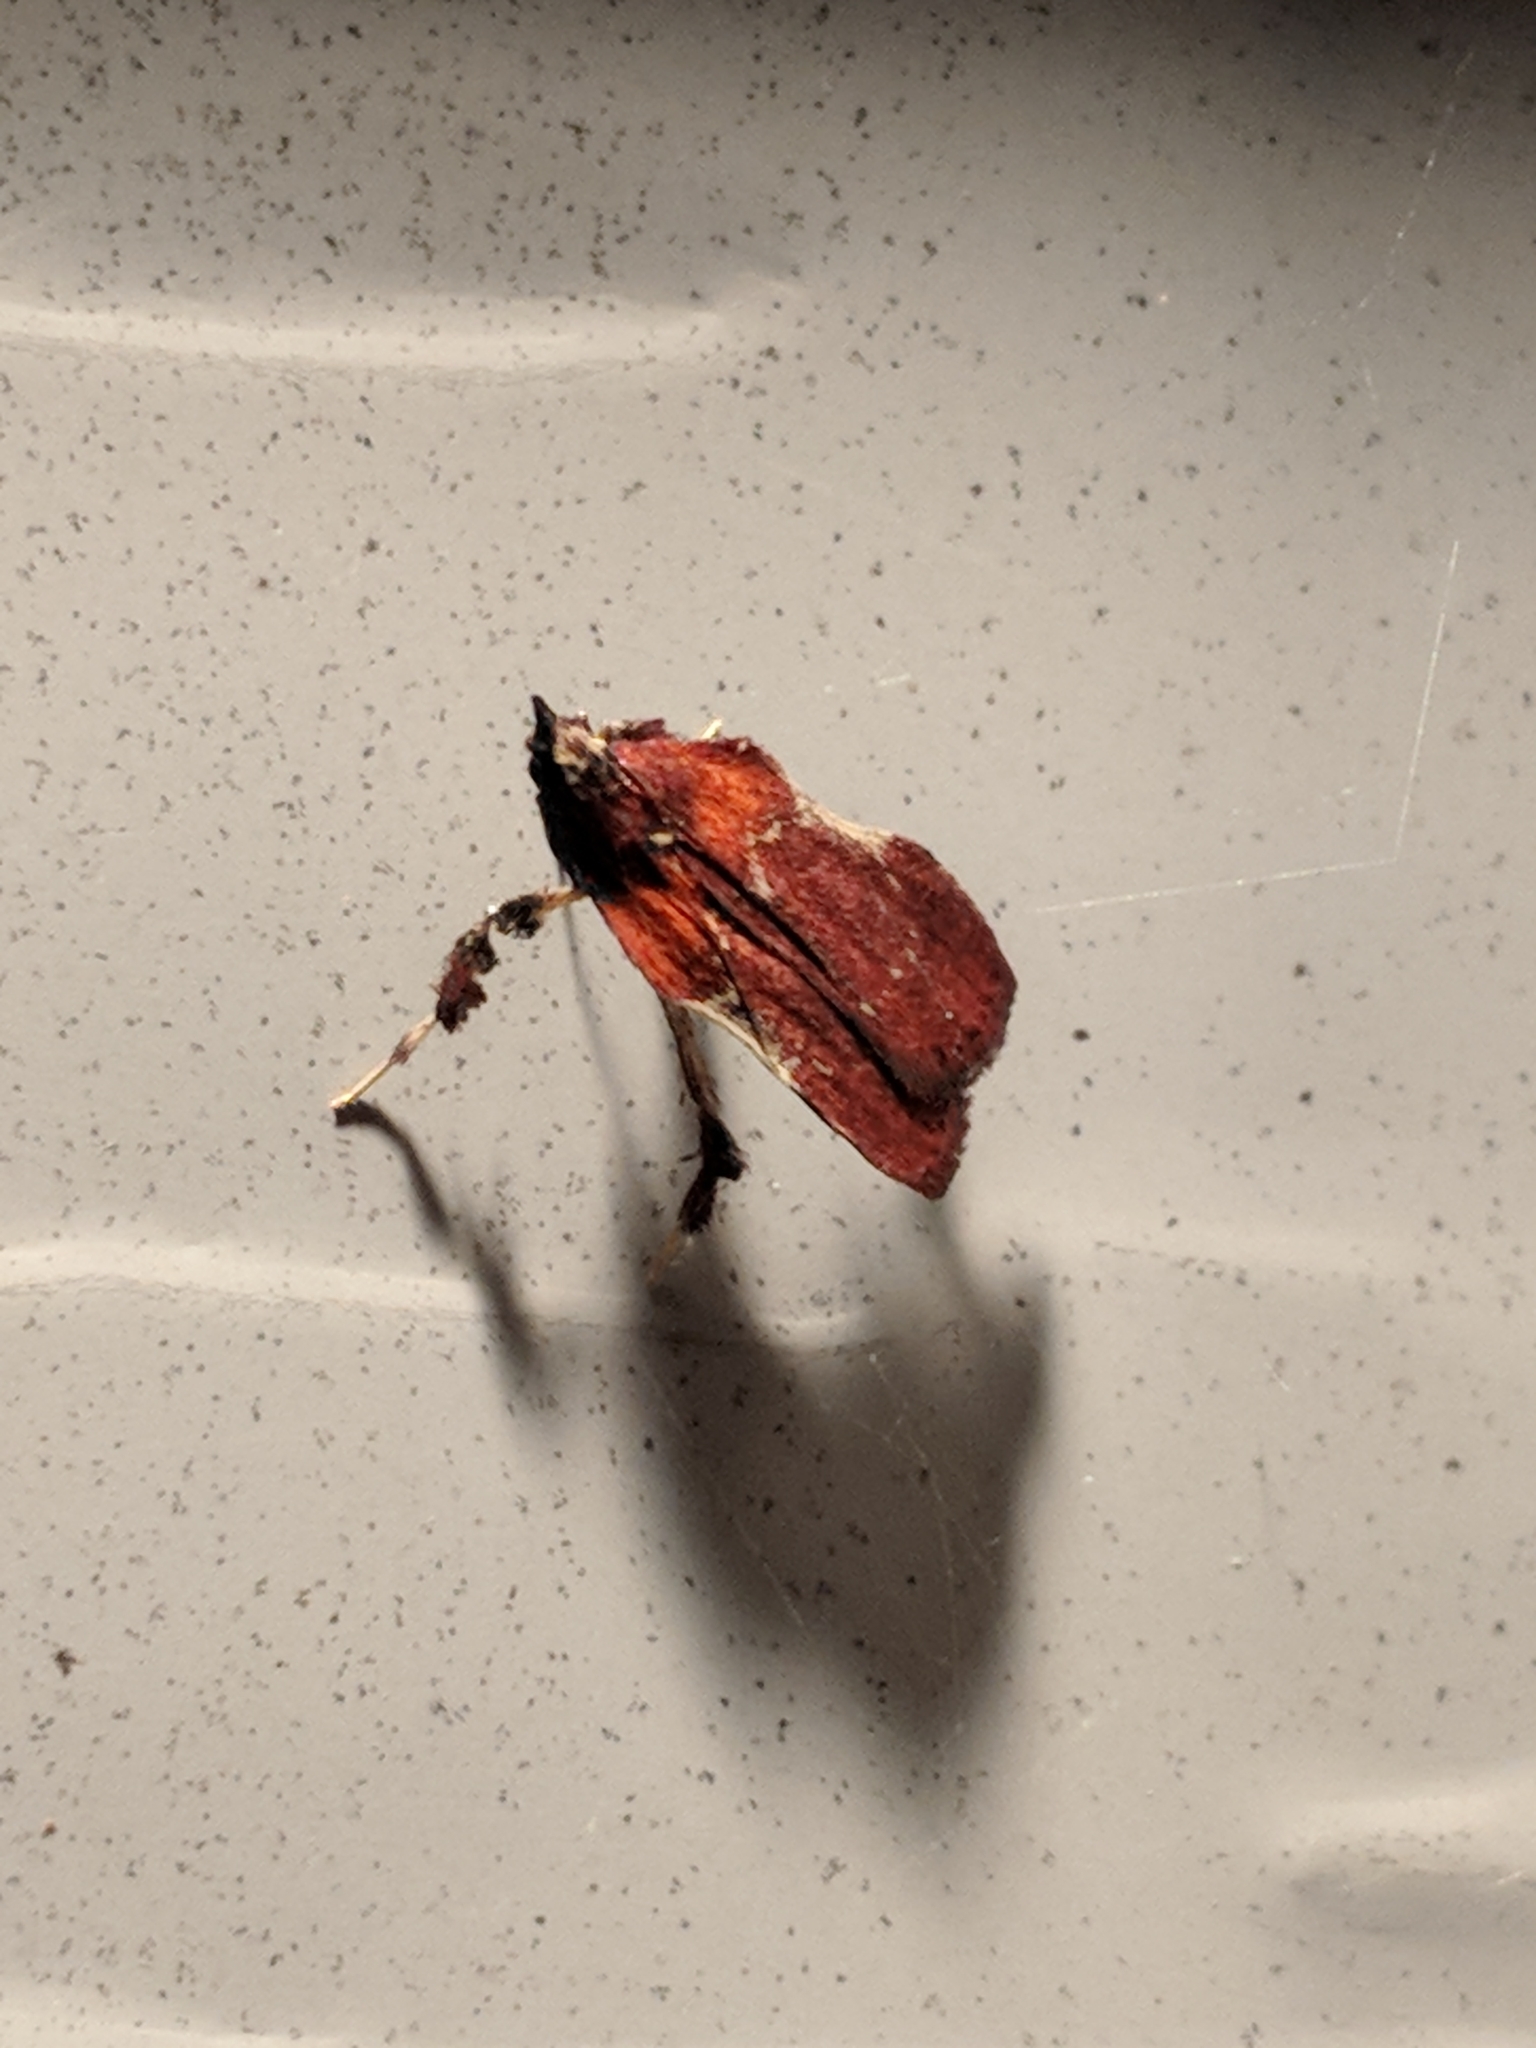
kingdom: Animalia
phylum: Arthropoda
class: Insecta
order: Lepidoptera
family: Pyralidae
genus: Galasa
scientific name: Galasa nigrinodis
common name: Boxwood leaftier moth
